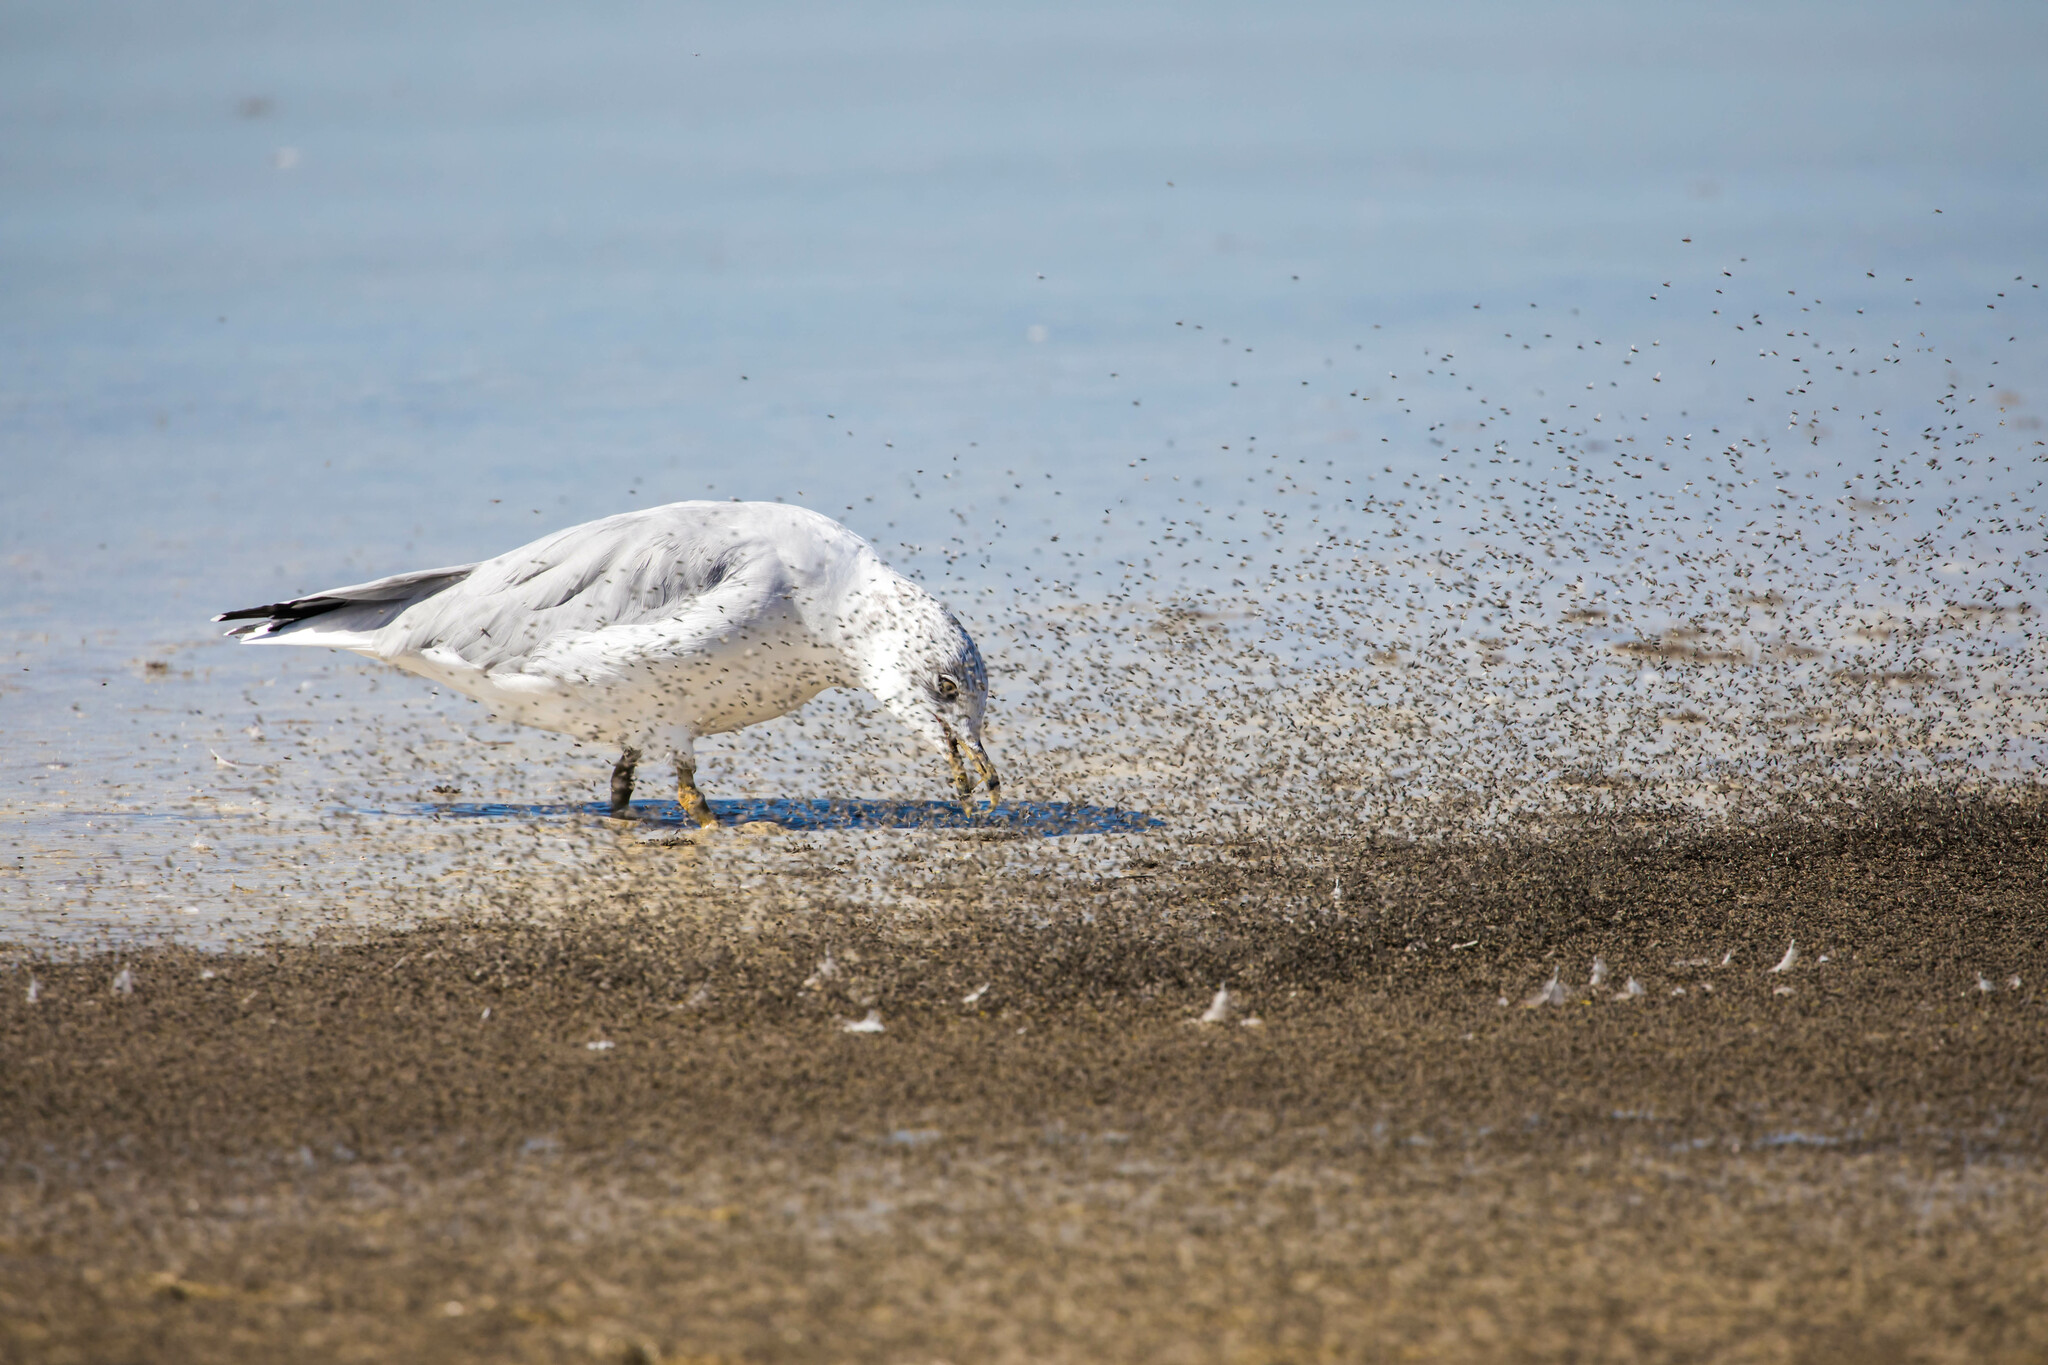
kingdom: Animalia
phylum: Chordata
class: Aves
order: Charadriiformes
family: Laridae
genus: Larus
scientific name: Larus delawarensis
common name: Ring-billed gull
